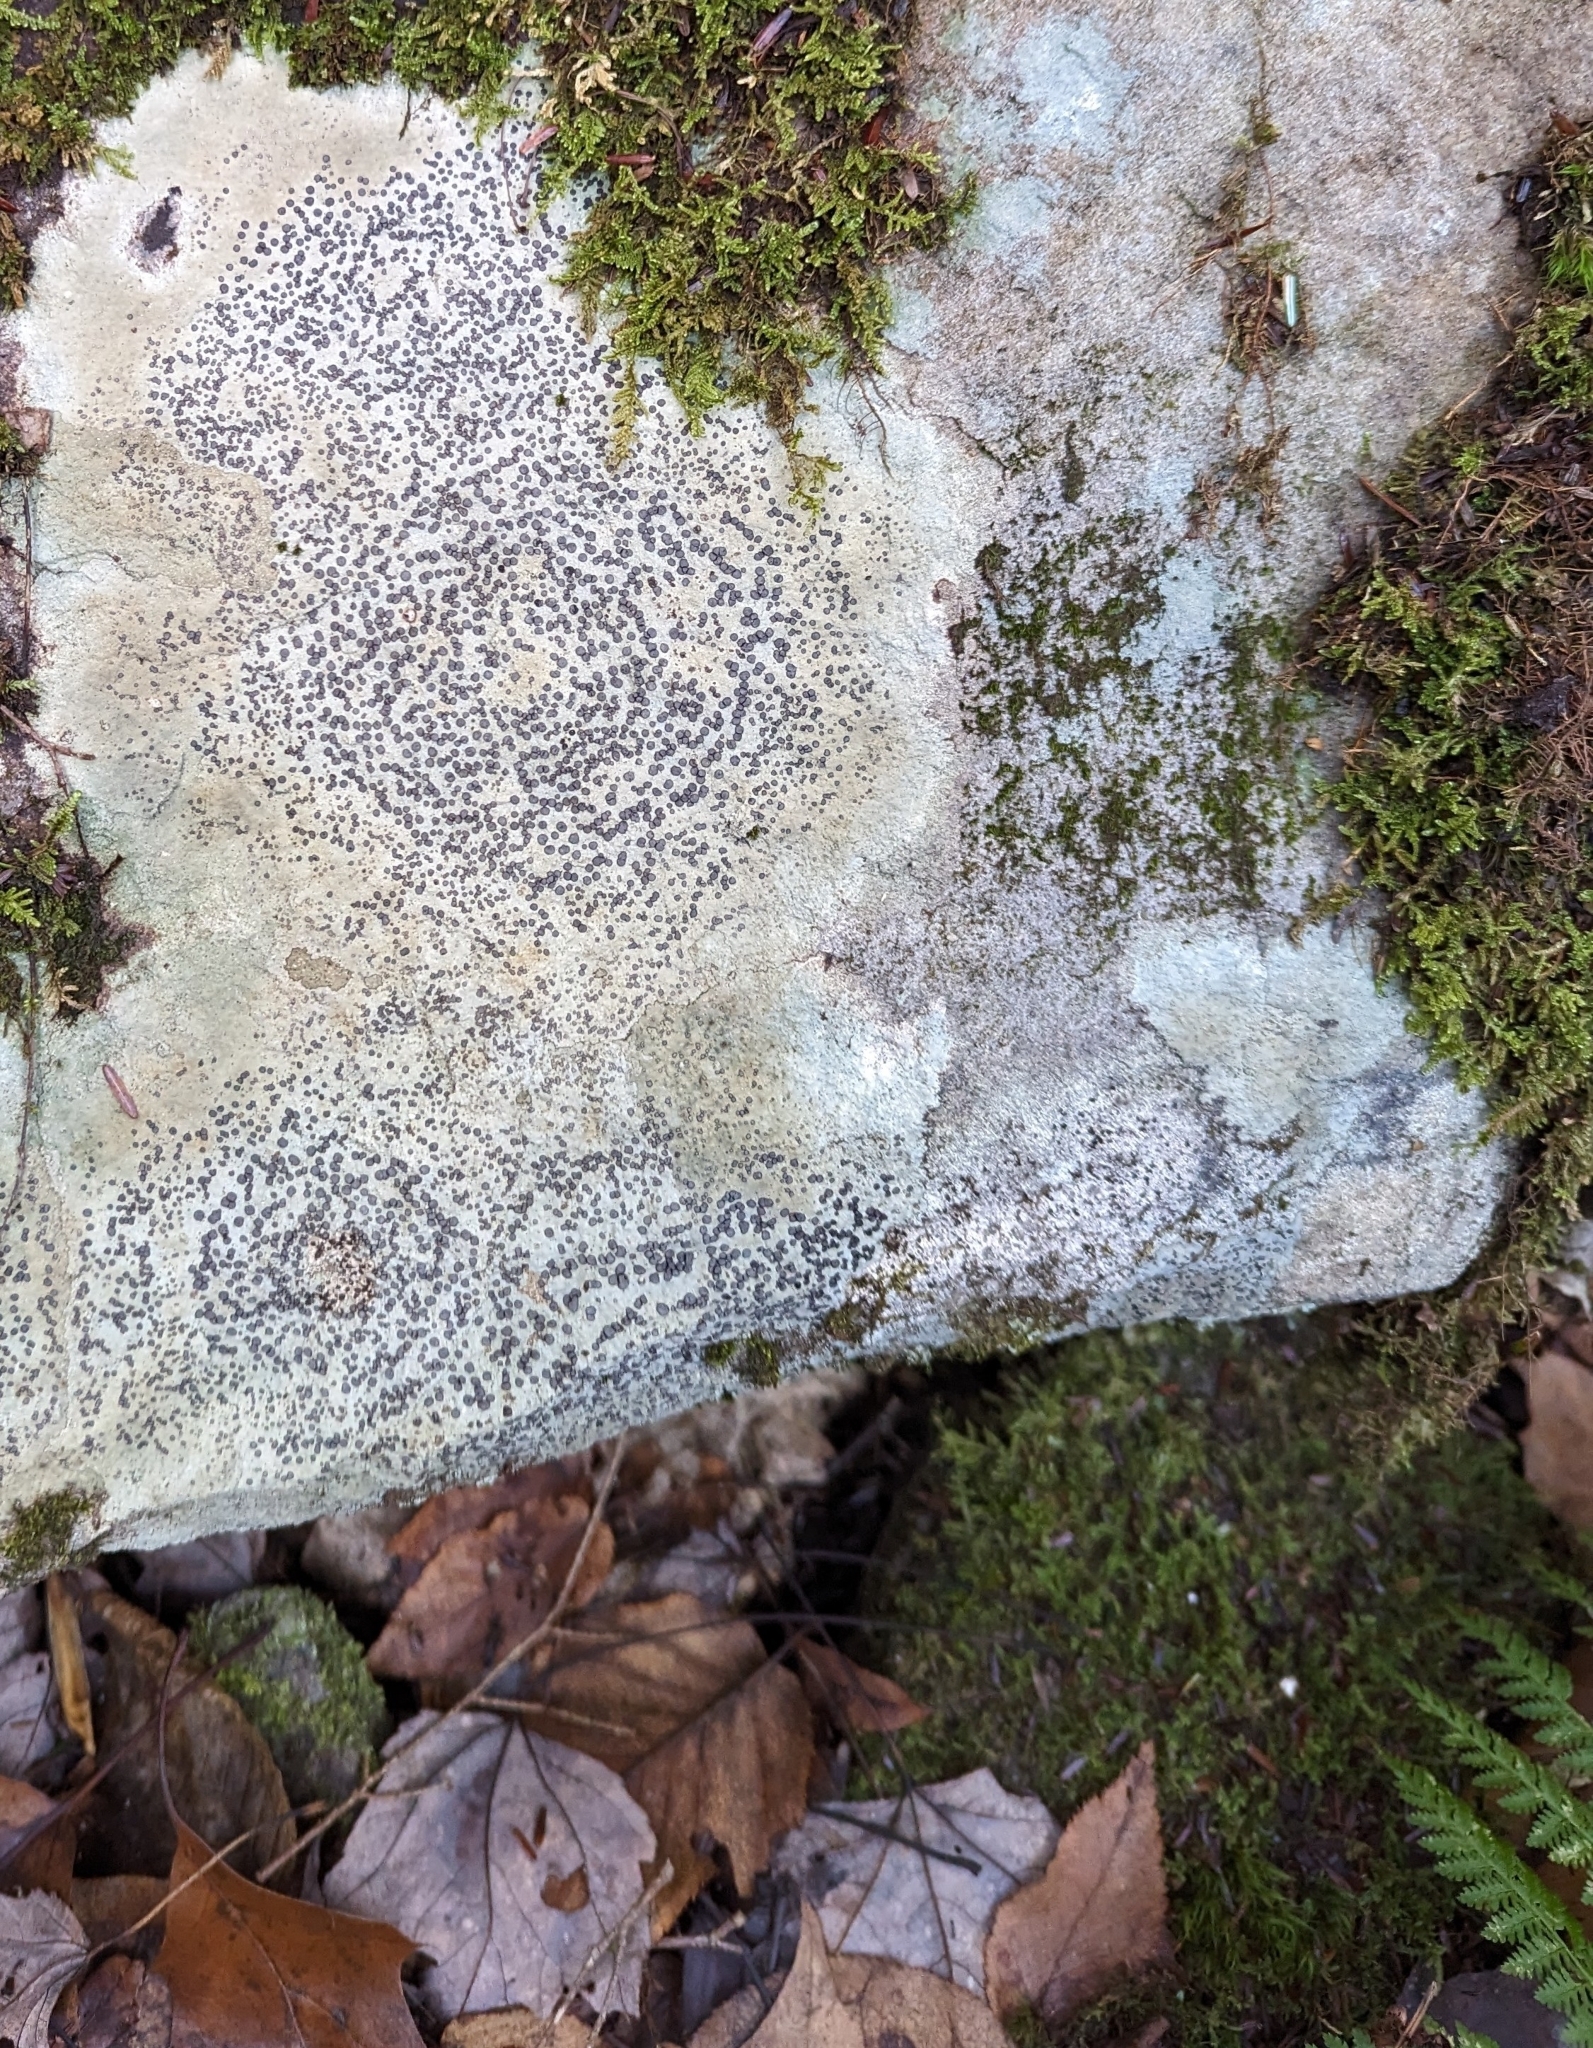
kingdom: Fungi
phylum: Ascomycota
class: Lecanoromycetes
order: Lecideales
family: Lecideaceae
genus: Porpidia
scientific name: Porpidia albocaerulescens
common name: Smokey-eyed boulder lichen
